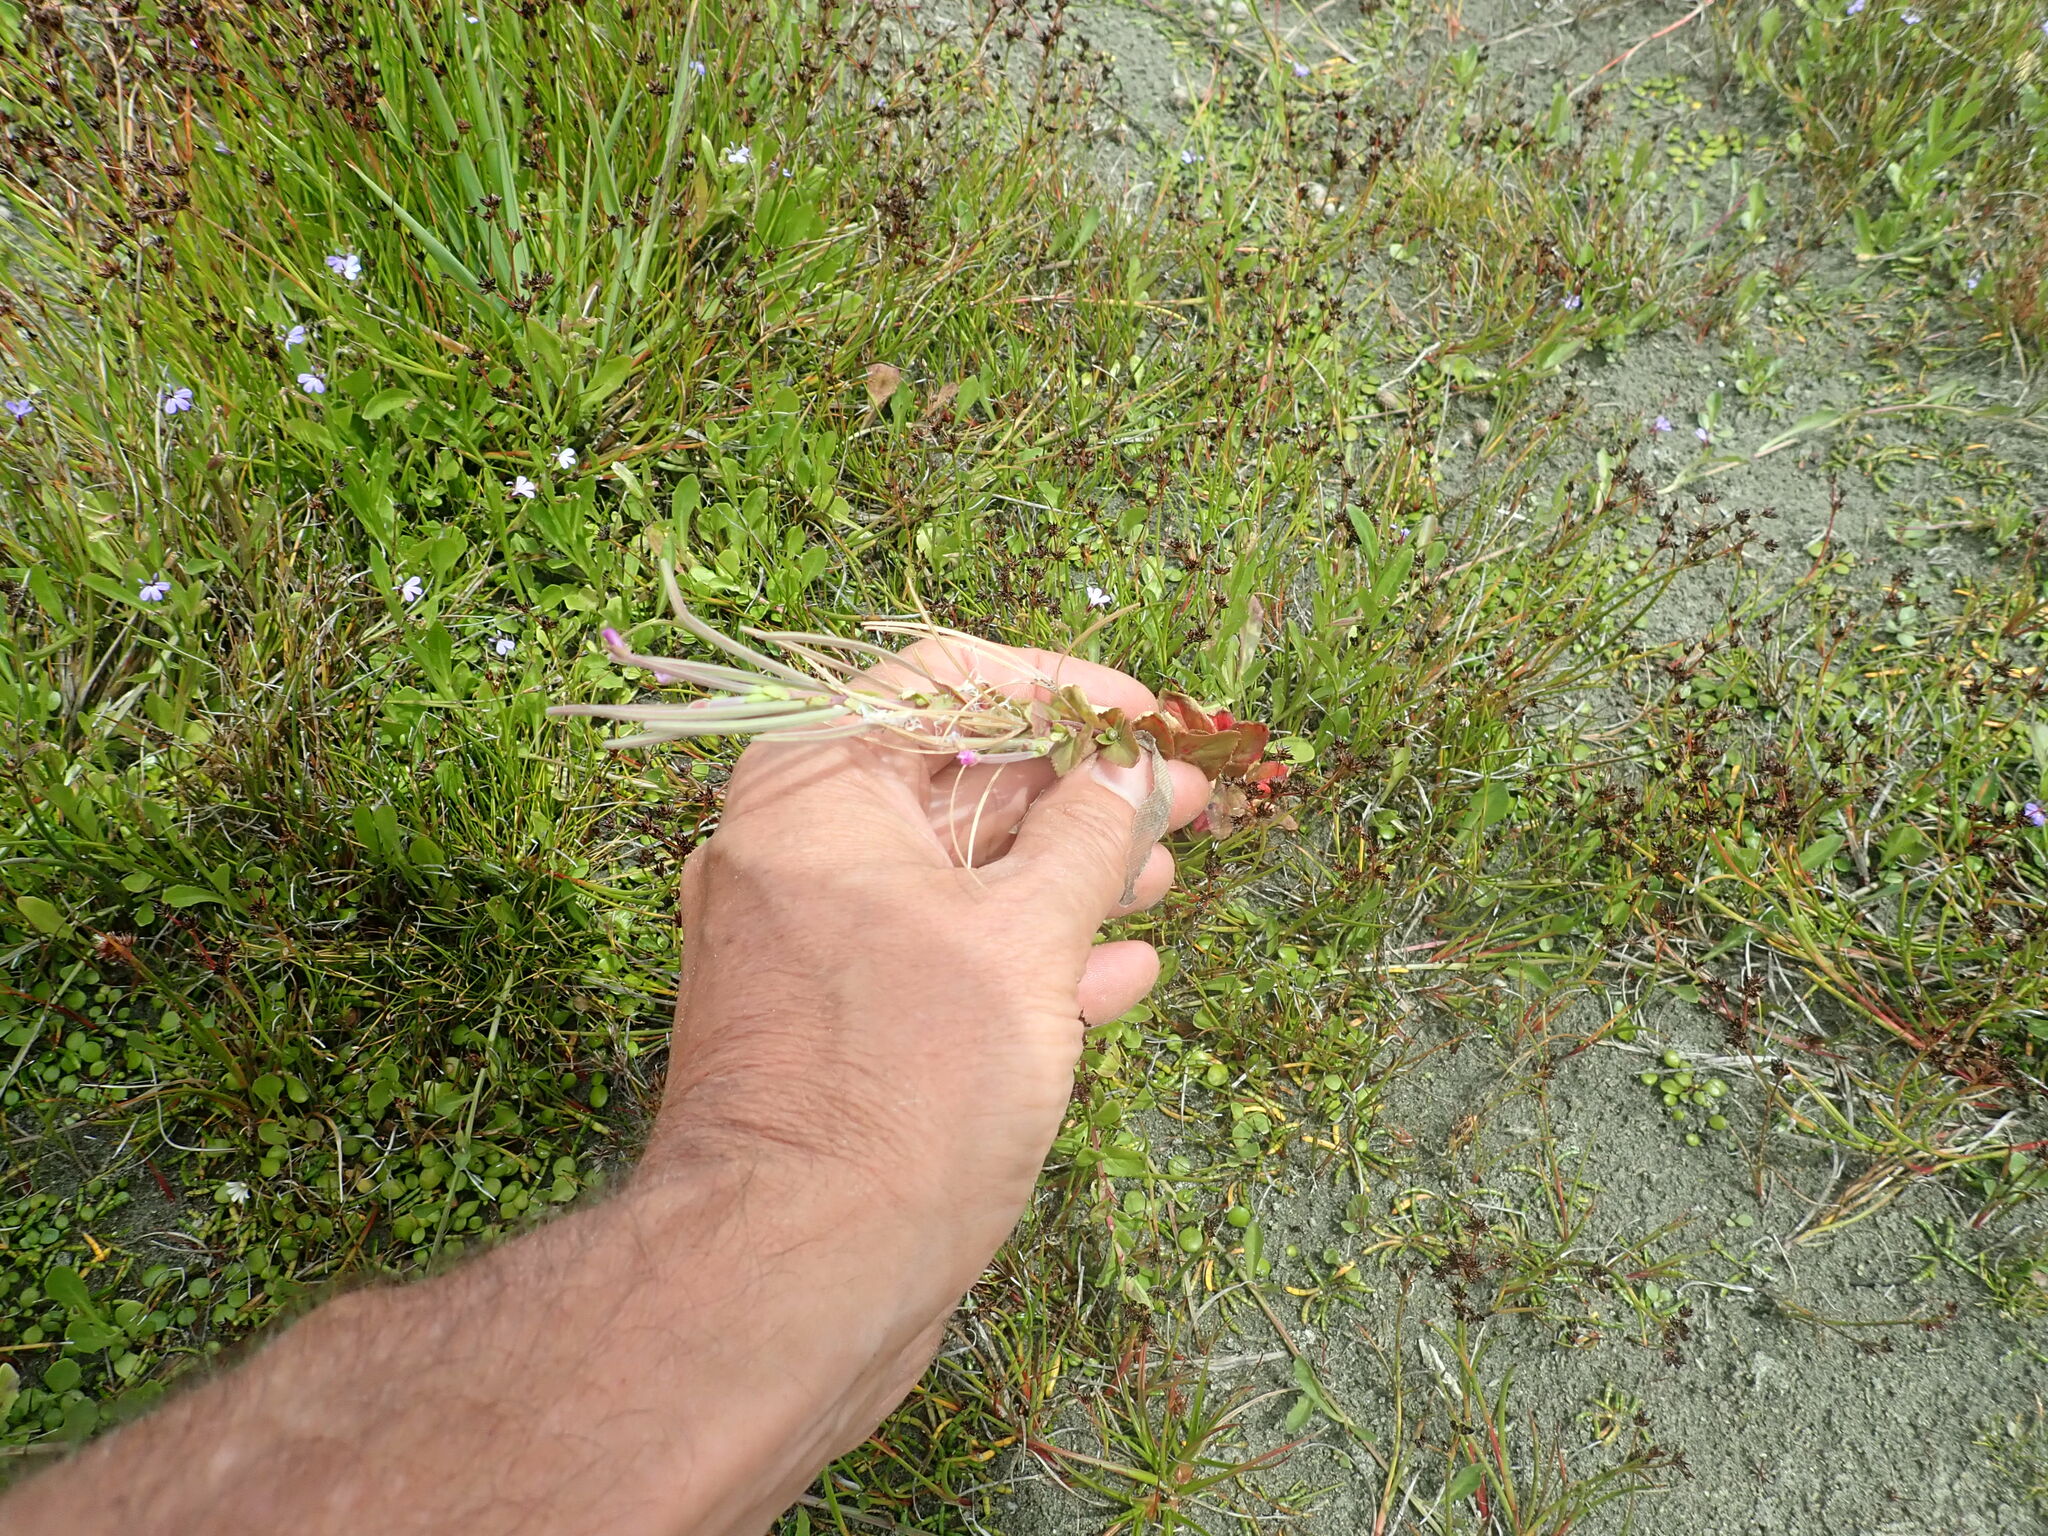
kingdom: Plantae
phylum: Tracheophyta
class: Magnoliopsida
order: Myrtales
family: Onagraceae
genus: Epilobium
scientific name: Epilobium billardiereanum
